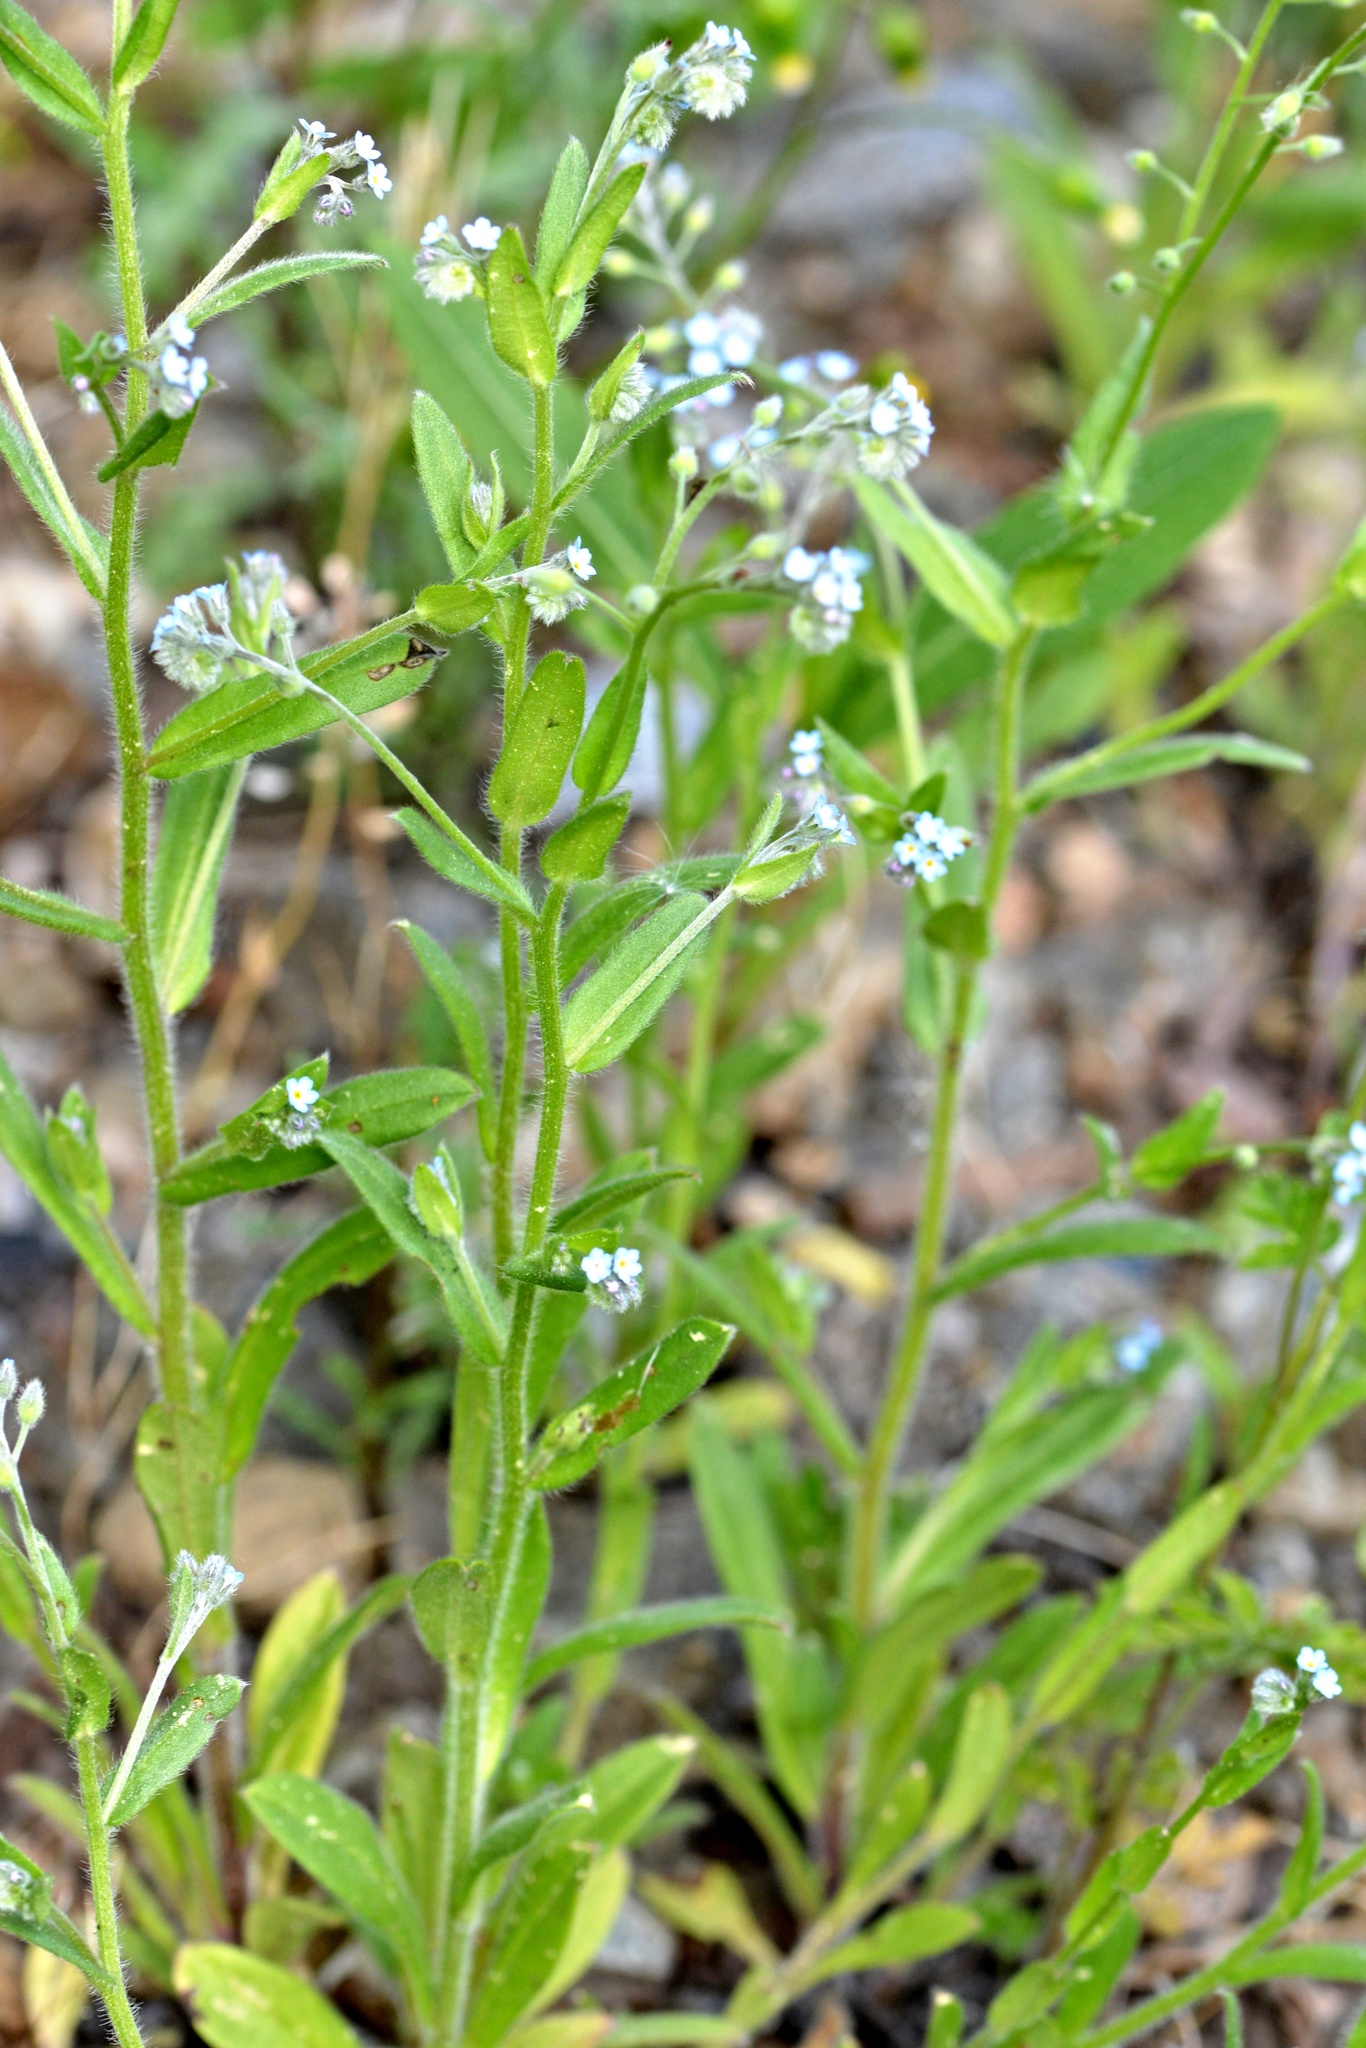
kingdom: Plantae
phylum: Tracheophyta
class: Magnoliopsida
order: Boraginales
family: Boraginaceae
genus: Myosotis
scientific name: Myosotis arvensis
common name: Field forget-me-not
